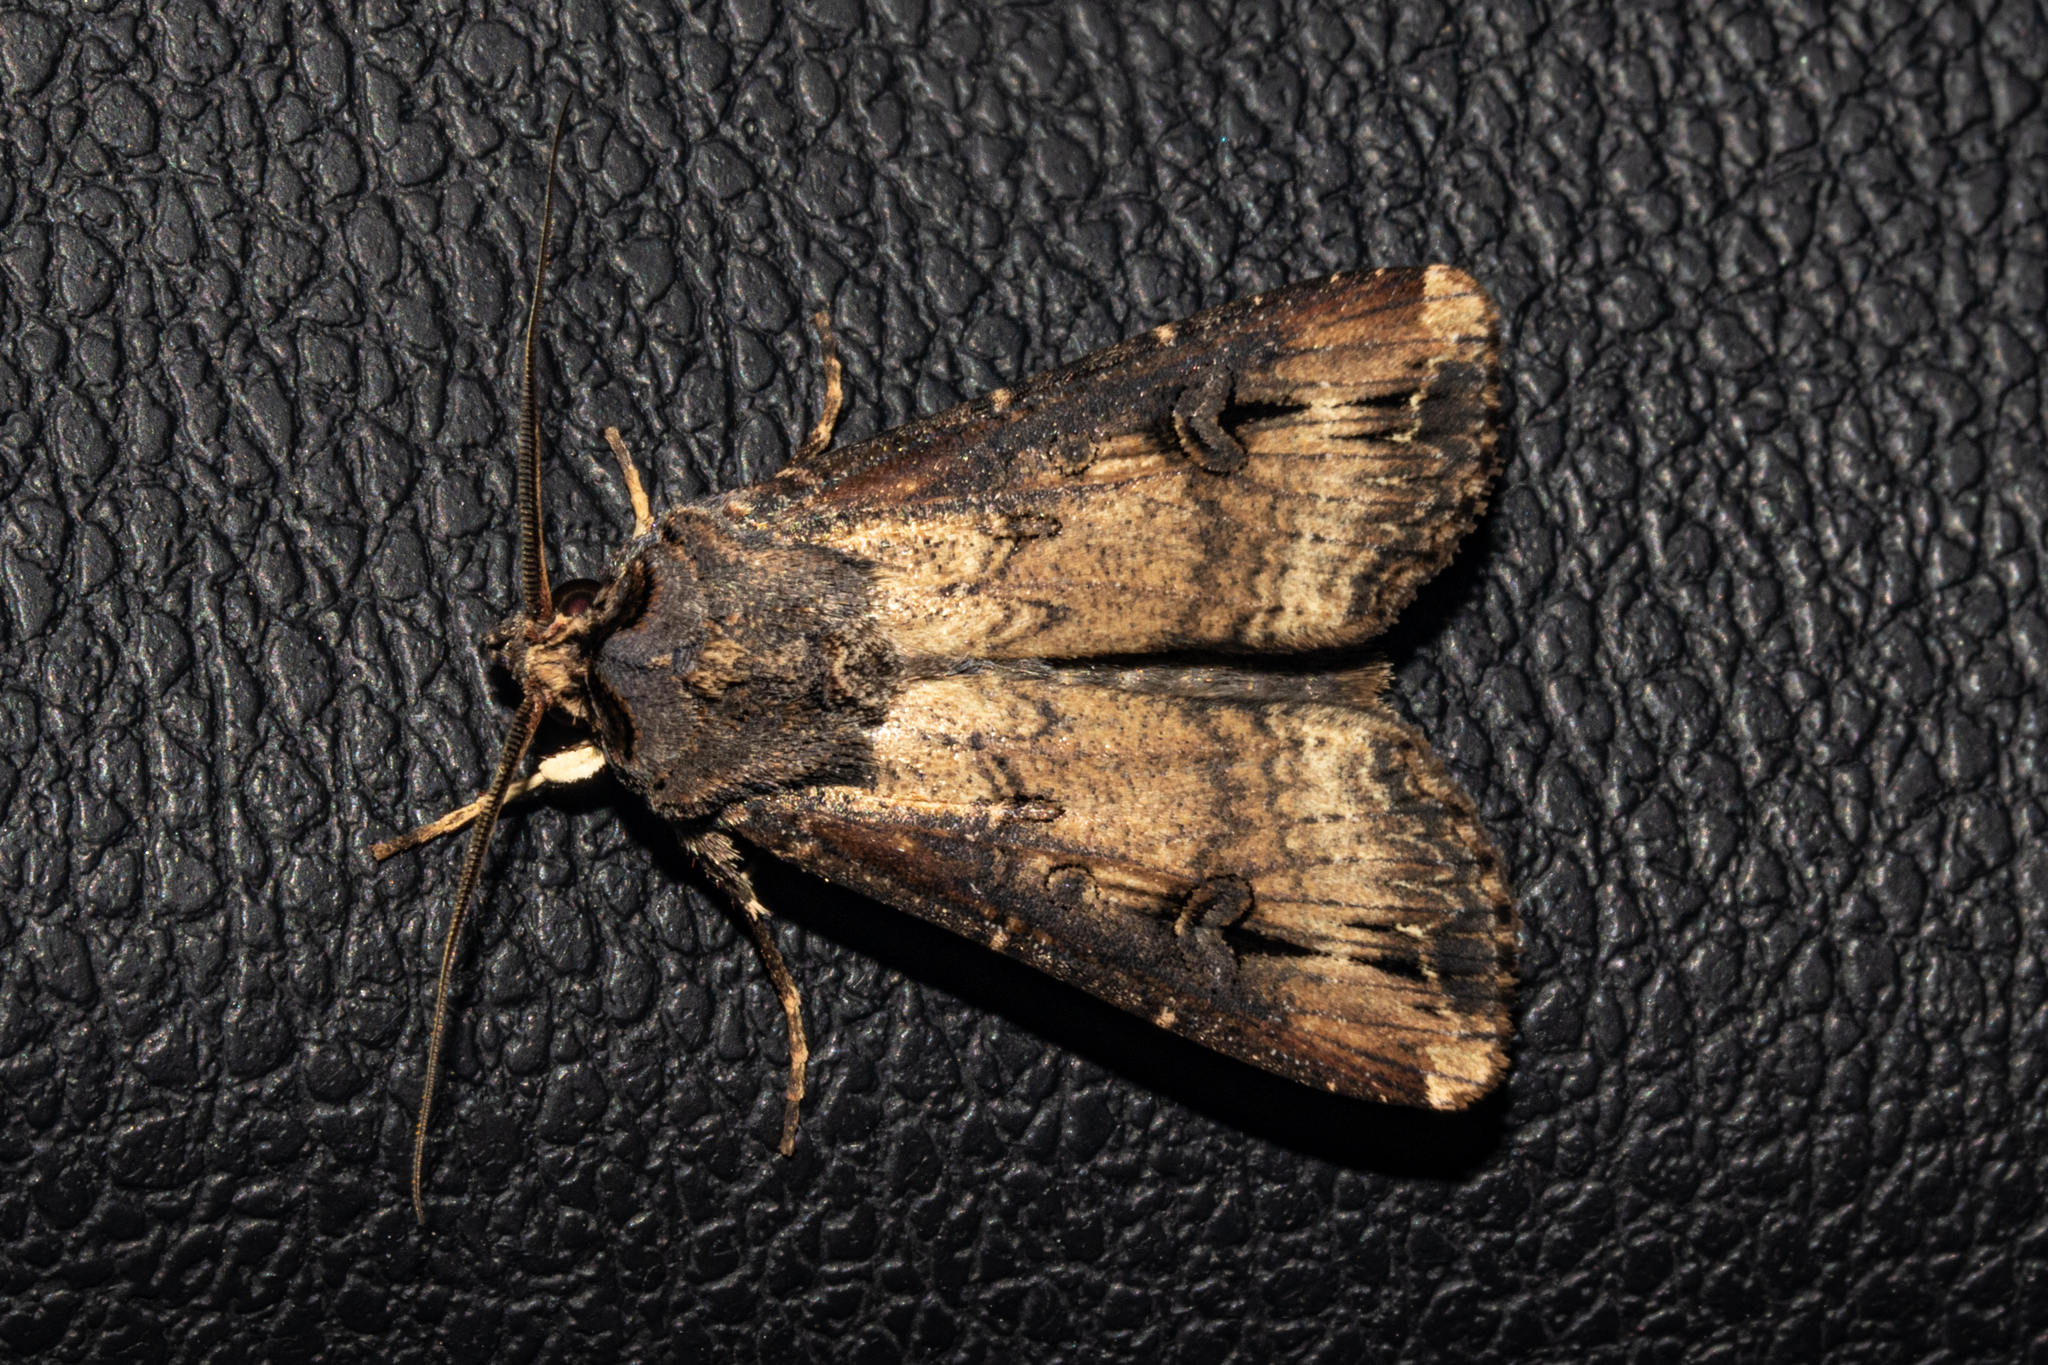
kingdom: Animalia
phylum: Arthropoda
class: Insecta
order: Lepidoptera
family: Noctuidae
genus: Agrotis
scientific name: Agrotis ipsilon
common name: Dark sword-grass
